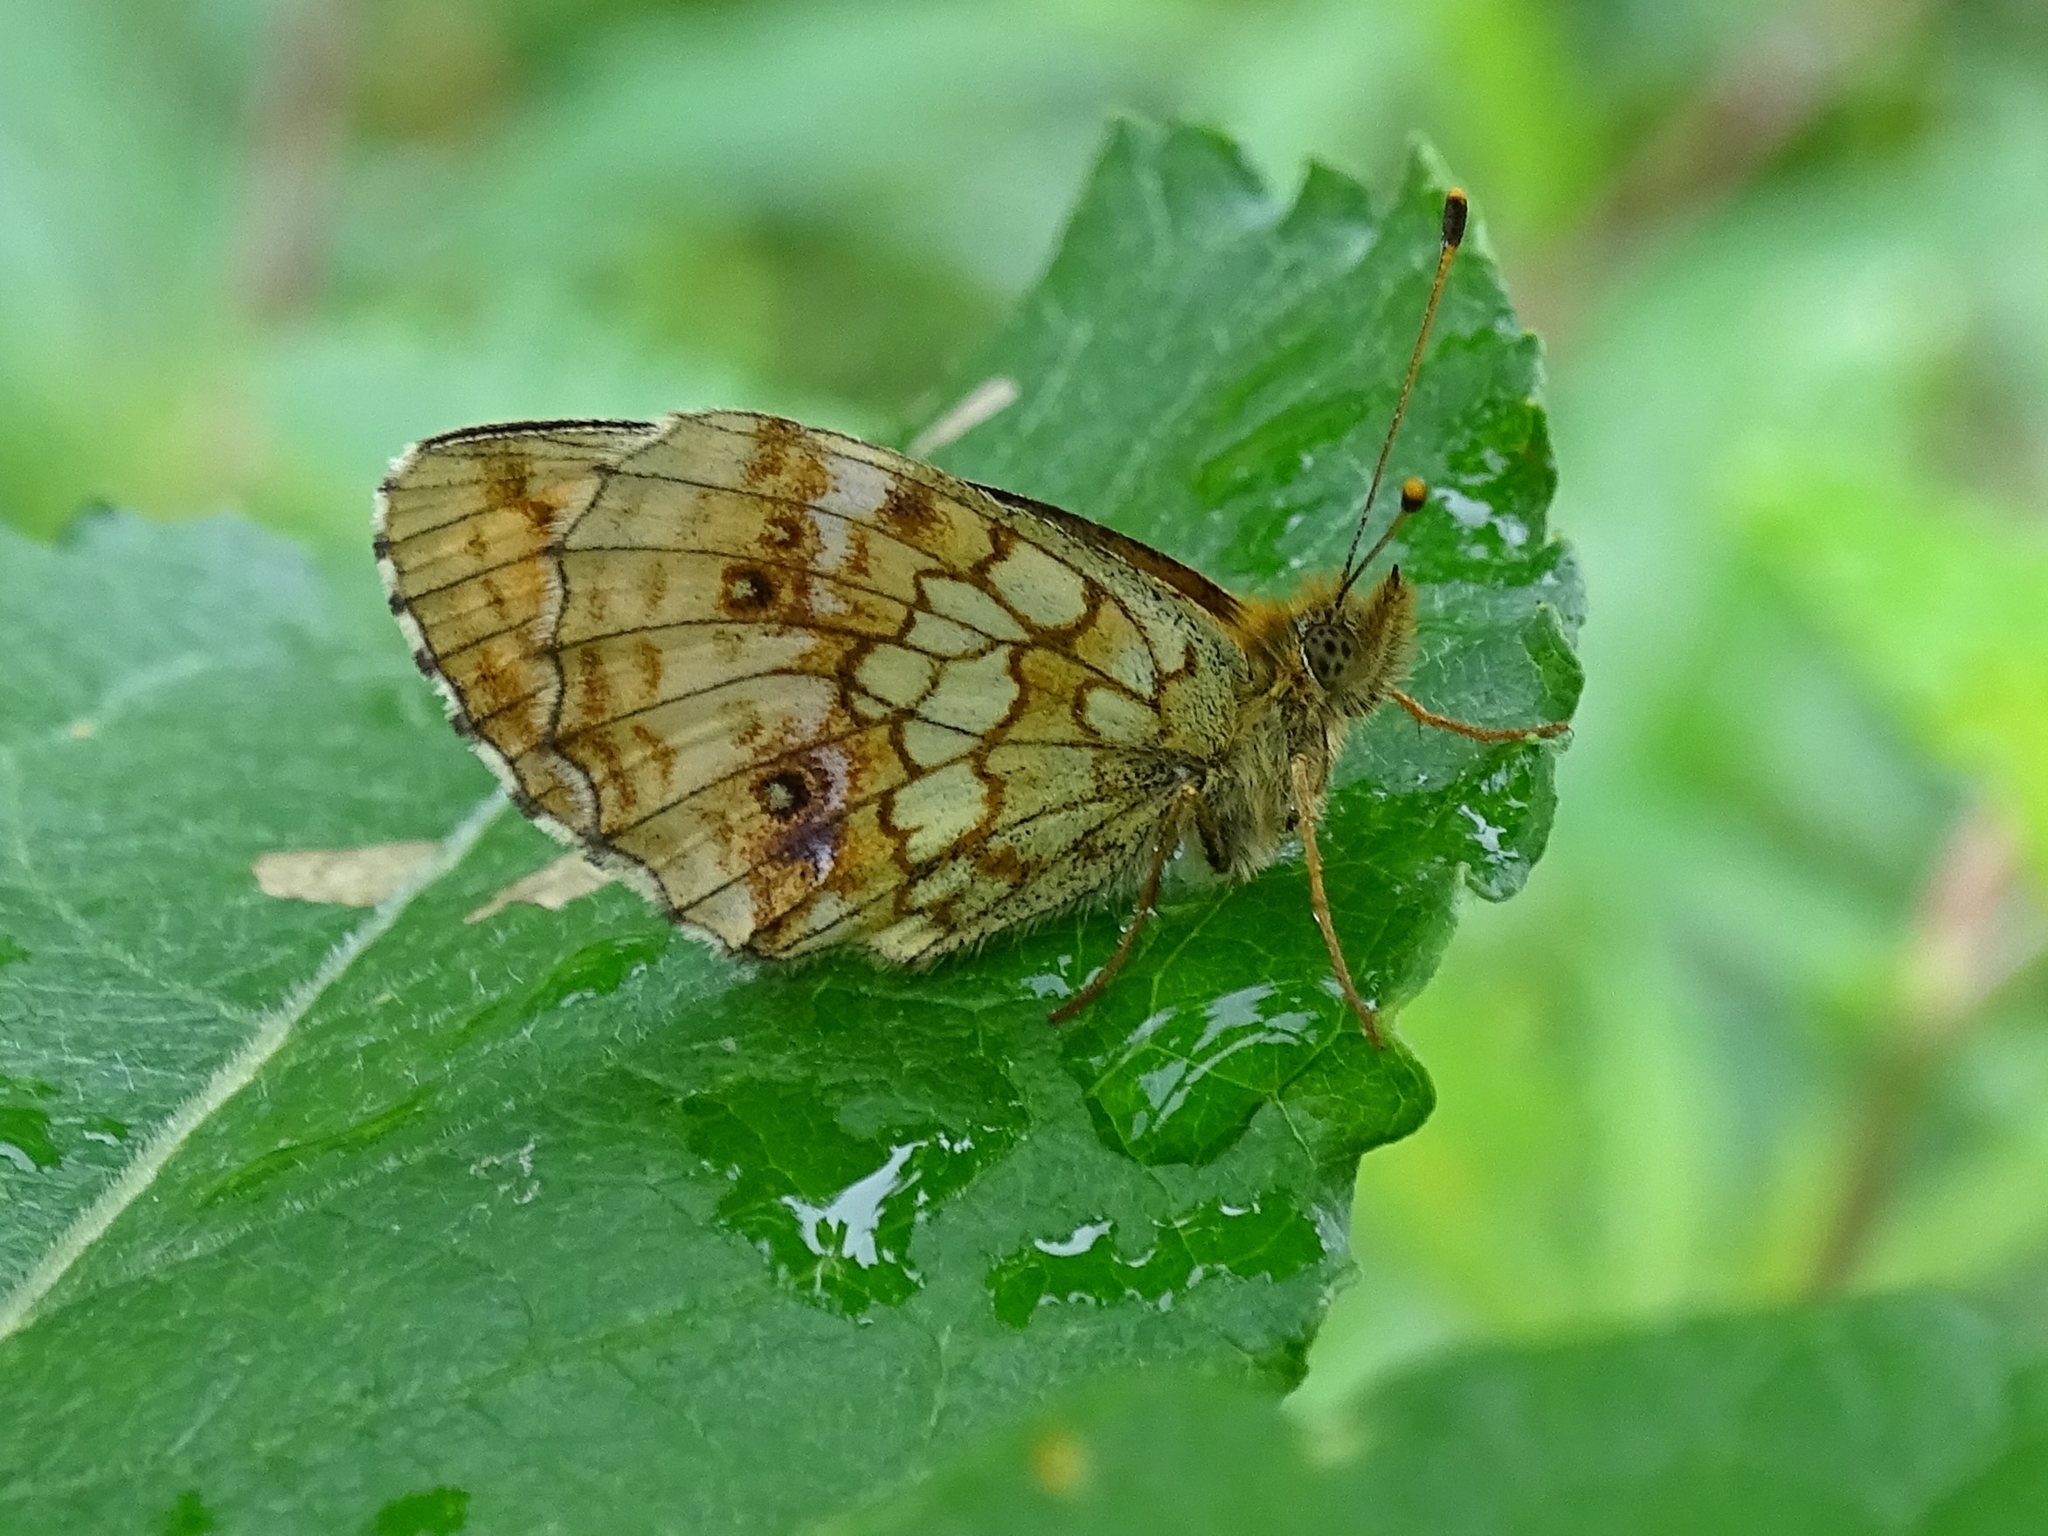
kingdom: Animalia
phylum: Arthropoda
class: Insecta
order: Lepidoptera
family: Nymphalidae
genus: Brenthis
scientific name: Brenthis ino
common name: Lesser marbled fritillary
